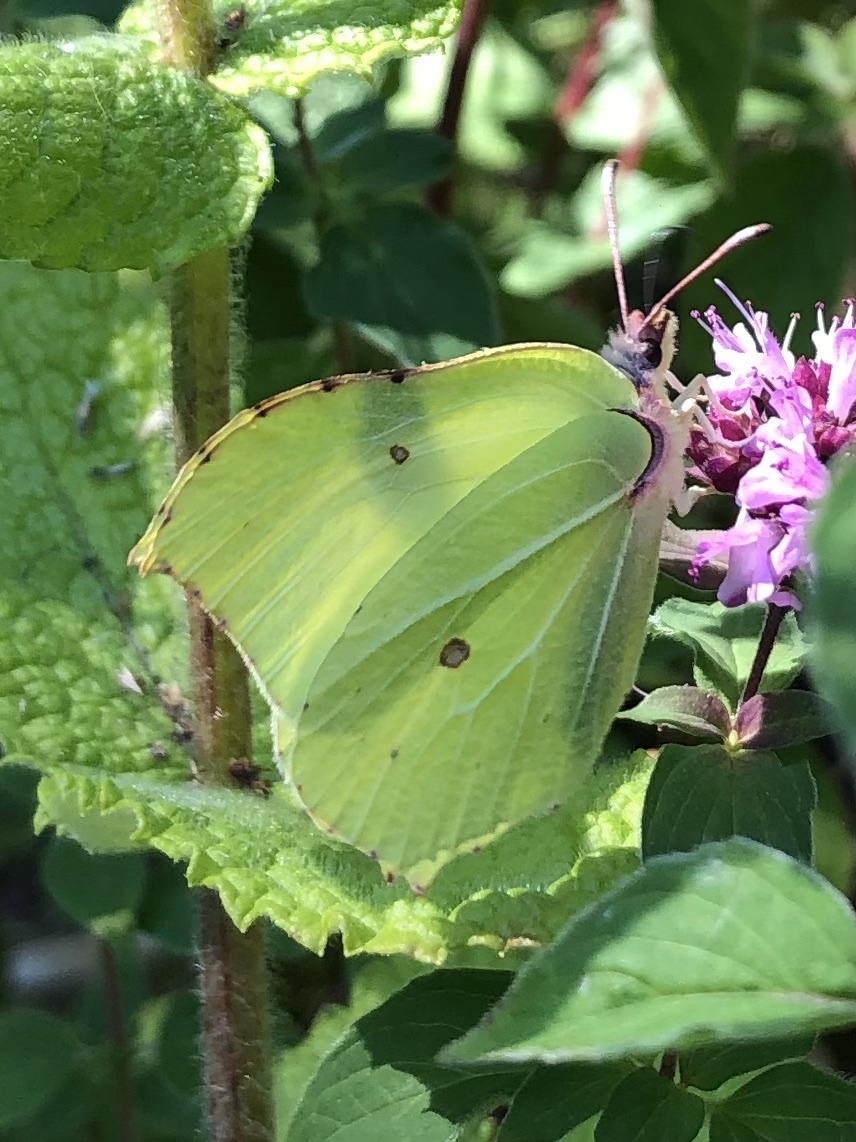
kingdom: Animalia
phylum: Arthropoda
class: Insecta
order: Lepidoptera
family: Pieridae
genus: Gonepteryx
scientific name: Gonepteryx rhamni
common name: Brimstone
